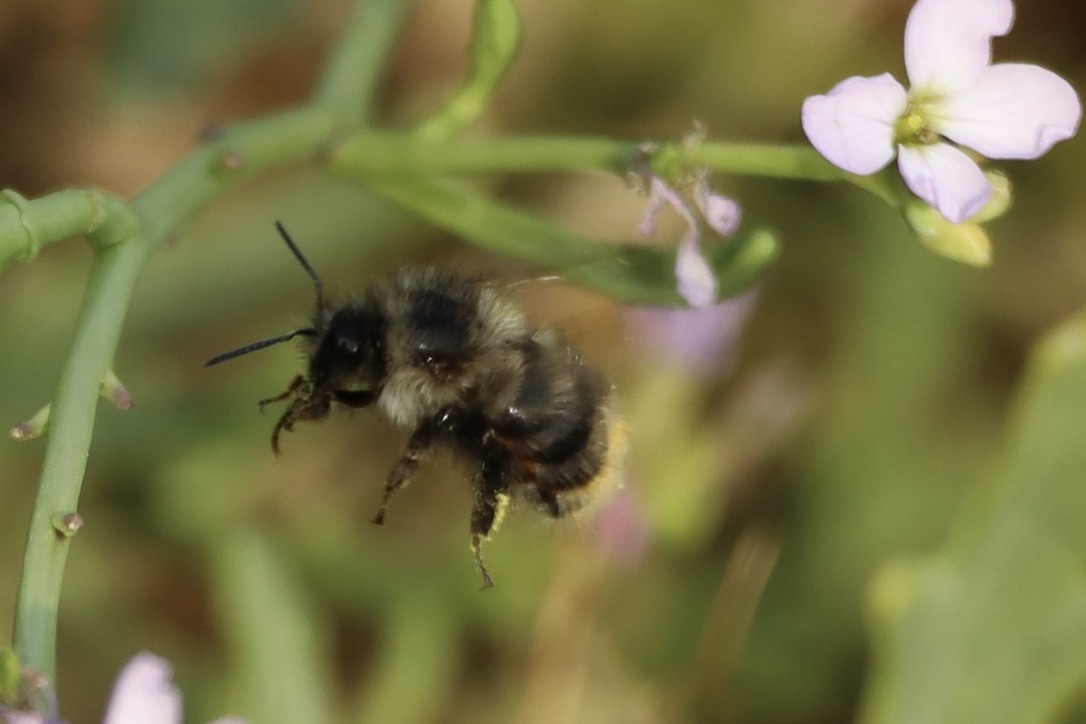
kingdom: Animalia
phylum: Arthropoda
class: Insecta
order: Hymenoptera
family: Apidae
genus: Bombus
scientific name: Bombus mixtus
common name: Fuzzy-horned bumble bee
